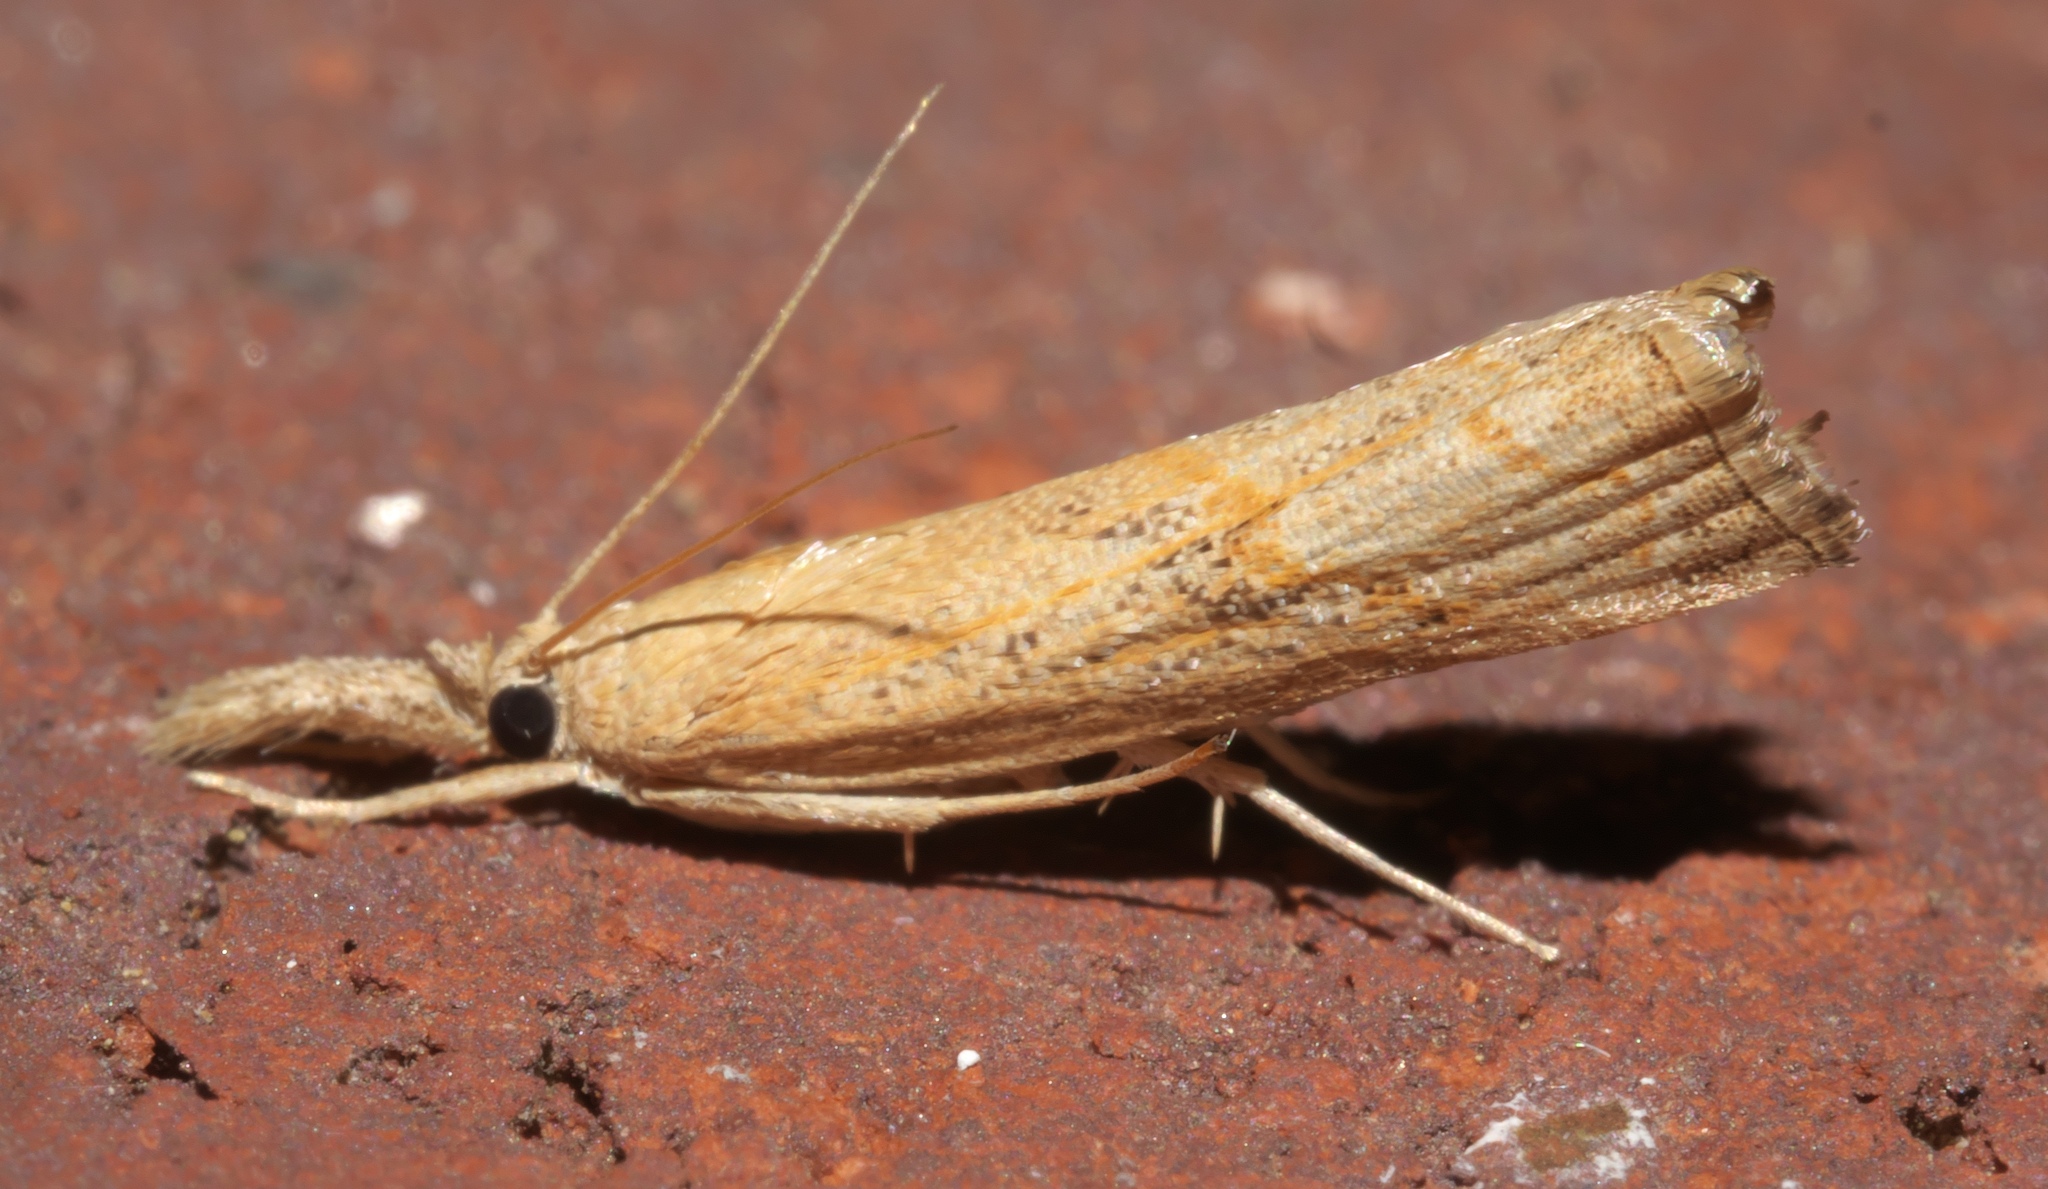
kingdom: Animalia
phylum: Arthropoda
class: Insecta
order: Lepidoptera
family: Crambidae
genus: Neodactria
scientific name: Neodactria luteolellus
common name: Mottled grass-veneer
